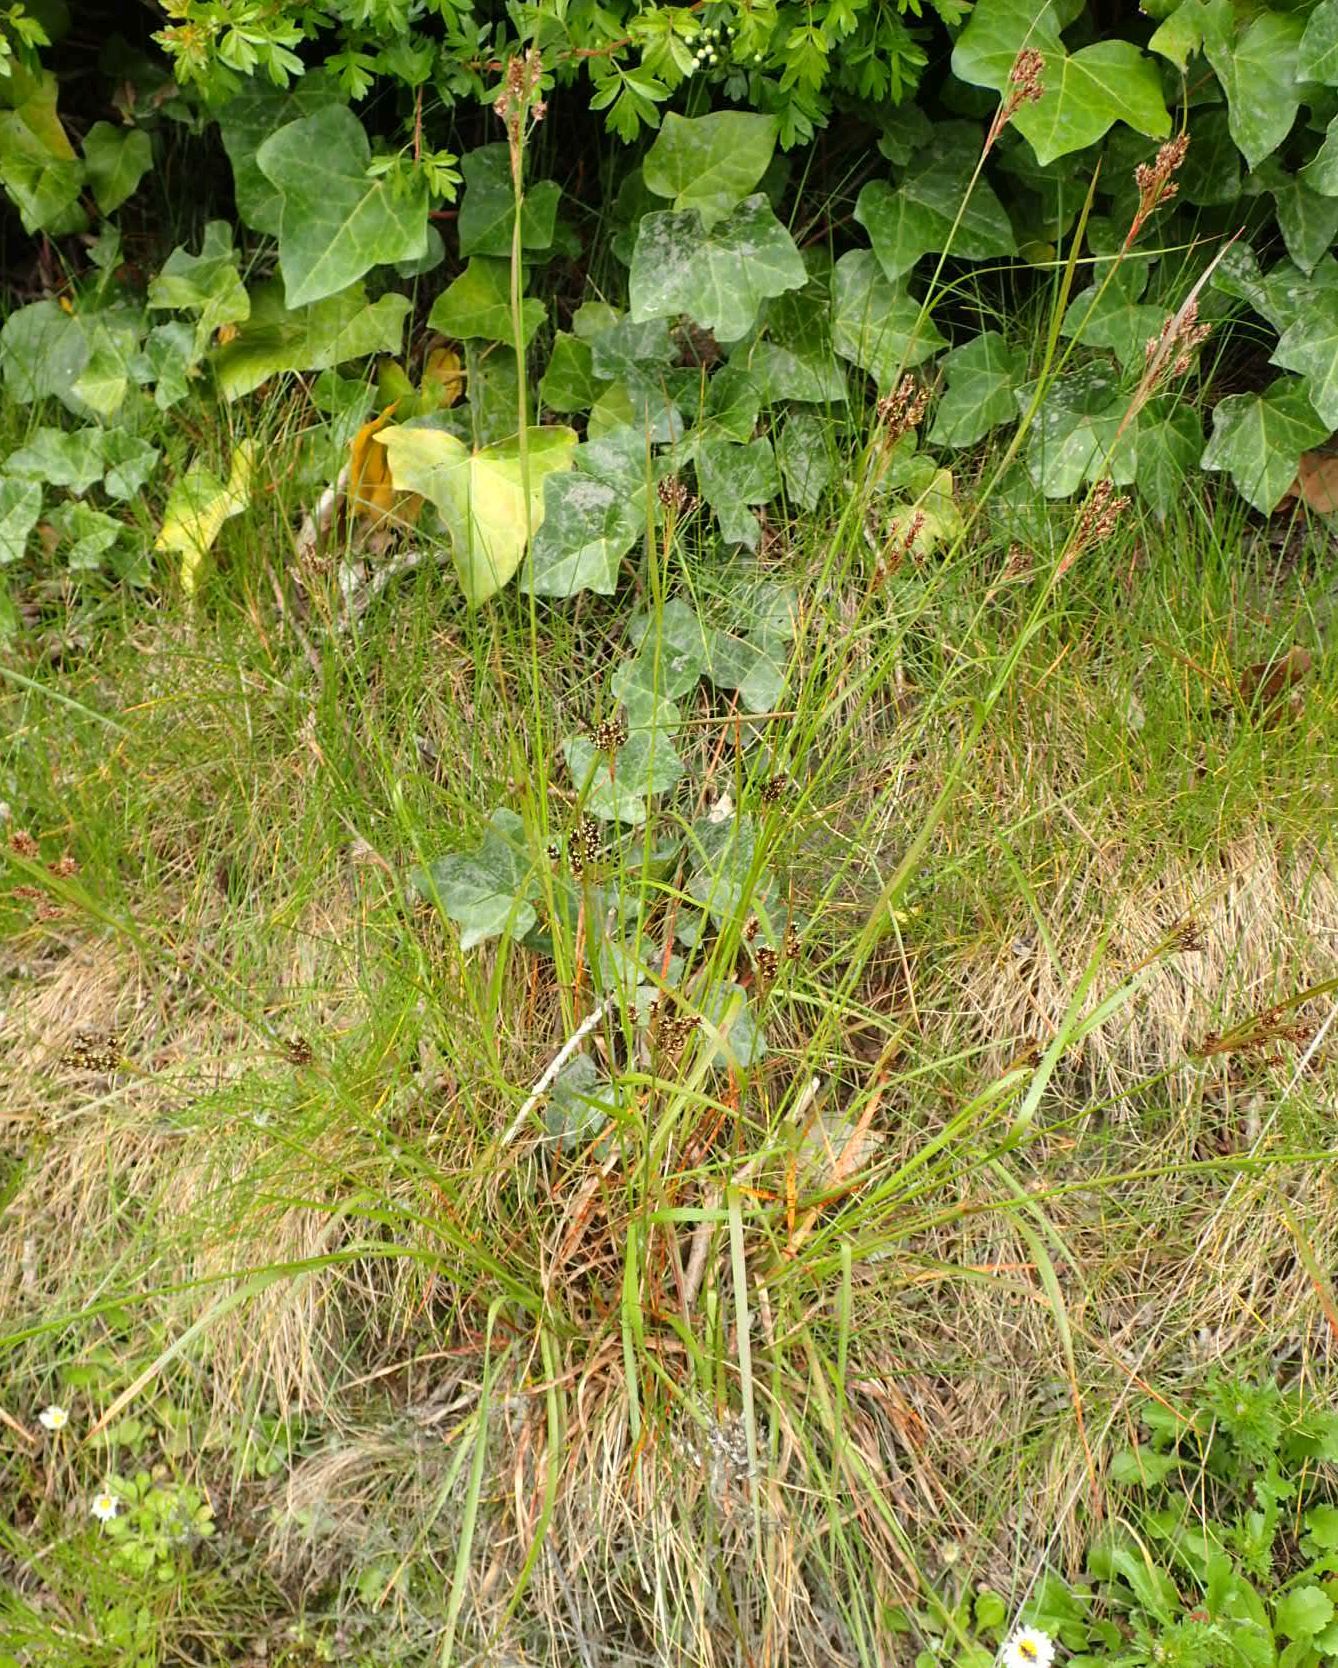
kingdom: Plantae
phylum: Tracheophyta
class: Liliopsida
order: Poales
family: Juncaceae
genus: Luzula
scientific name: Luzula multiflora
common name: Heath wood-rush
